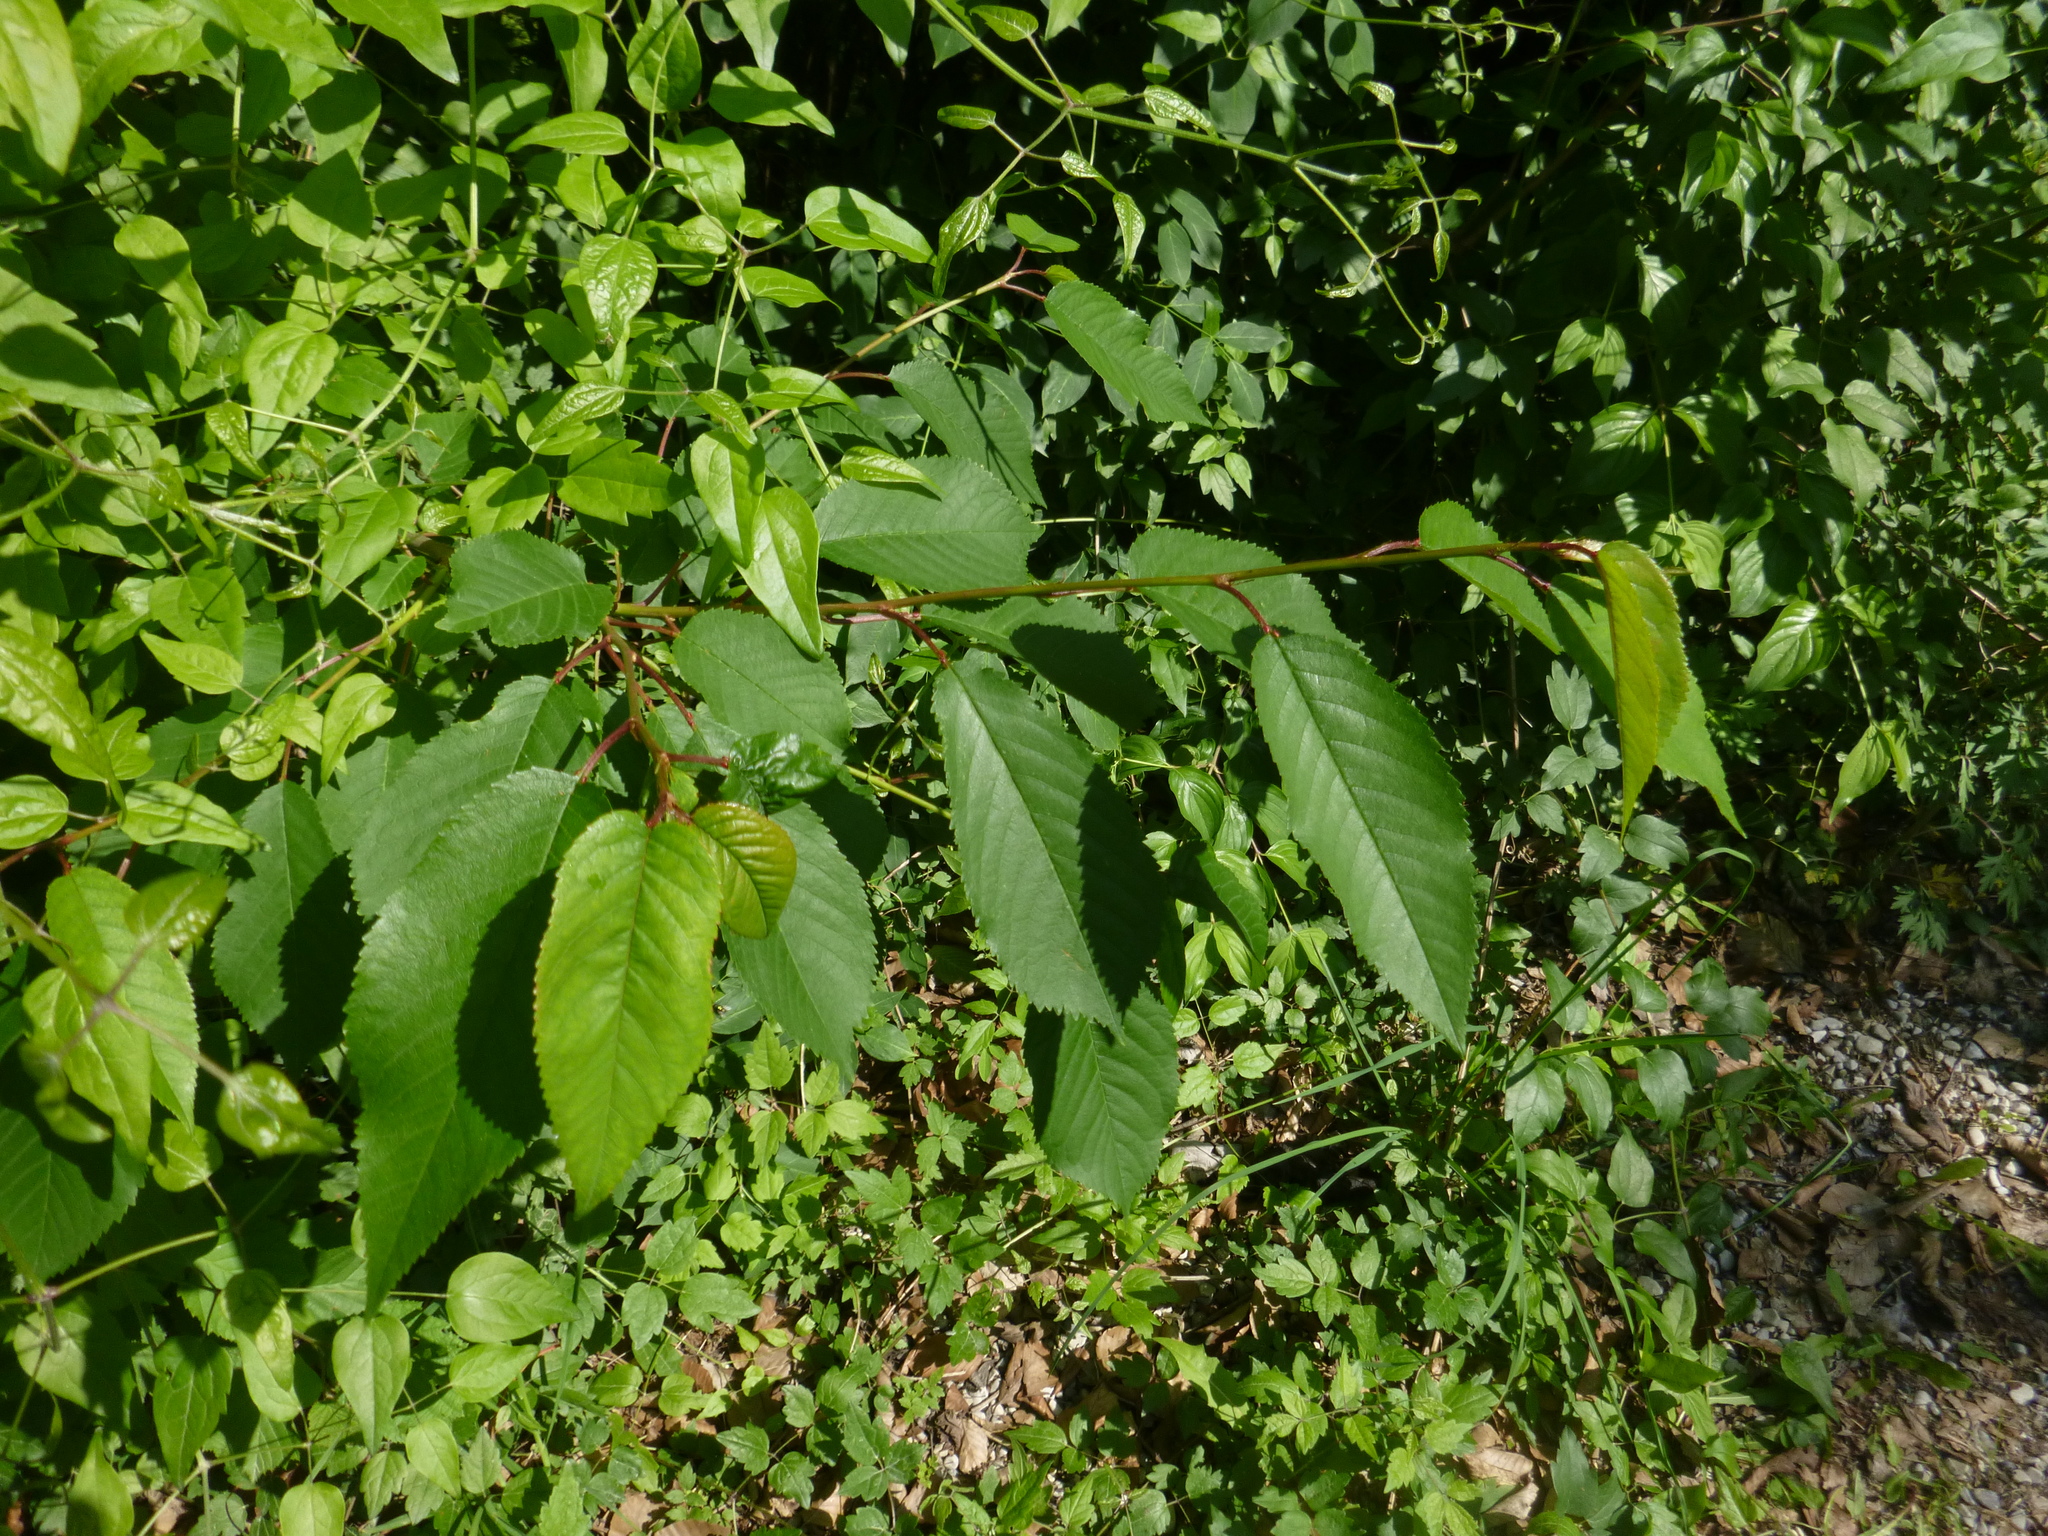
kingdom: Plantae
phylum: Tracheophyta
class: Magnoliopsida
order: Rosales
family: Rosaceae
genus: Prunus
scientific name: Prunus avium
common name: Sweet cherry
